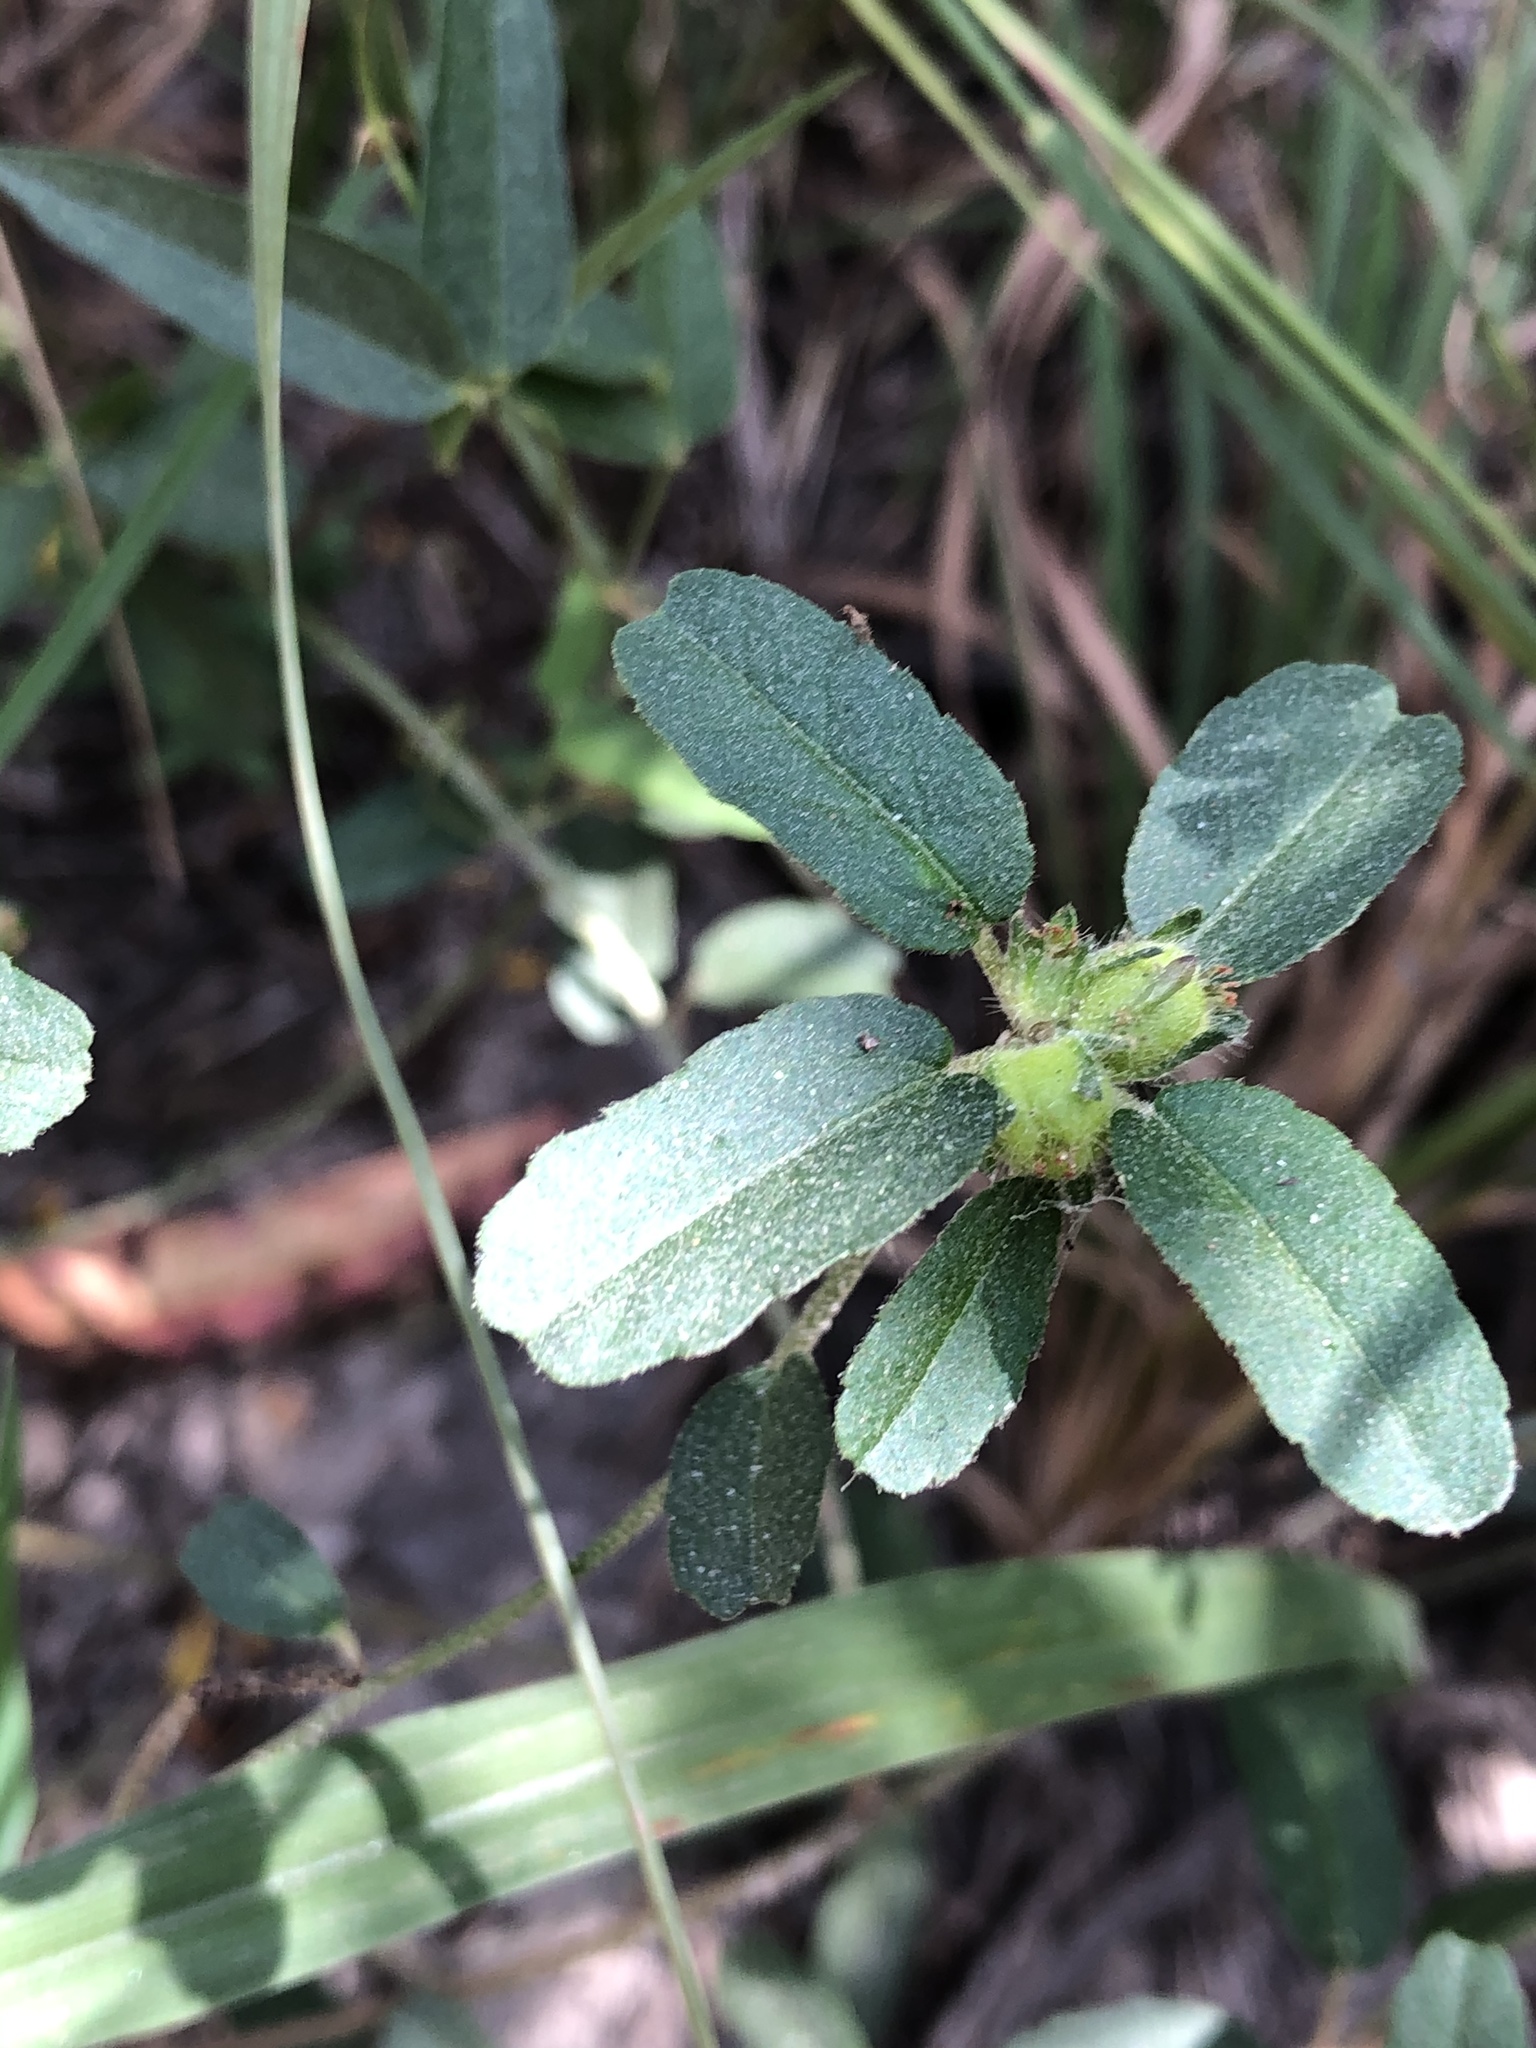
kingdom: Plantae
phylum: Tracheophyta
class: Magnoliopsida
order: Malpighiales
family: Euphorbiaceae
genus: Croton
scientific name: Croton glandulosus
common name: Tropic croton
